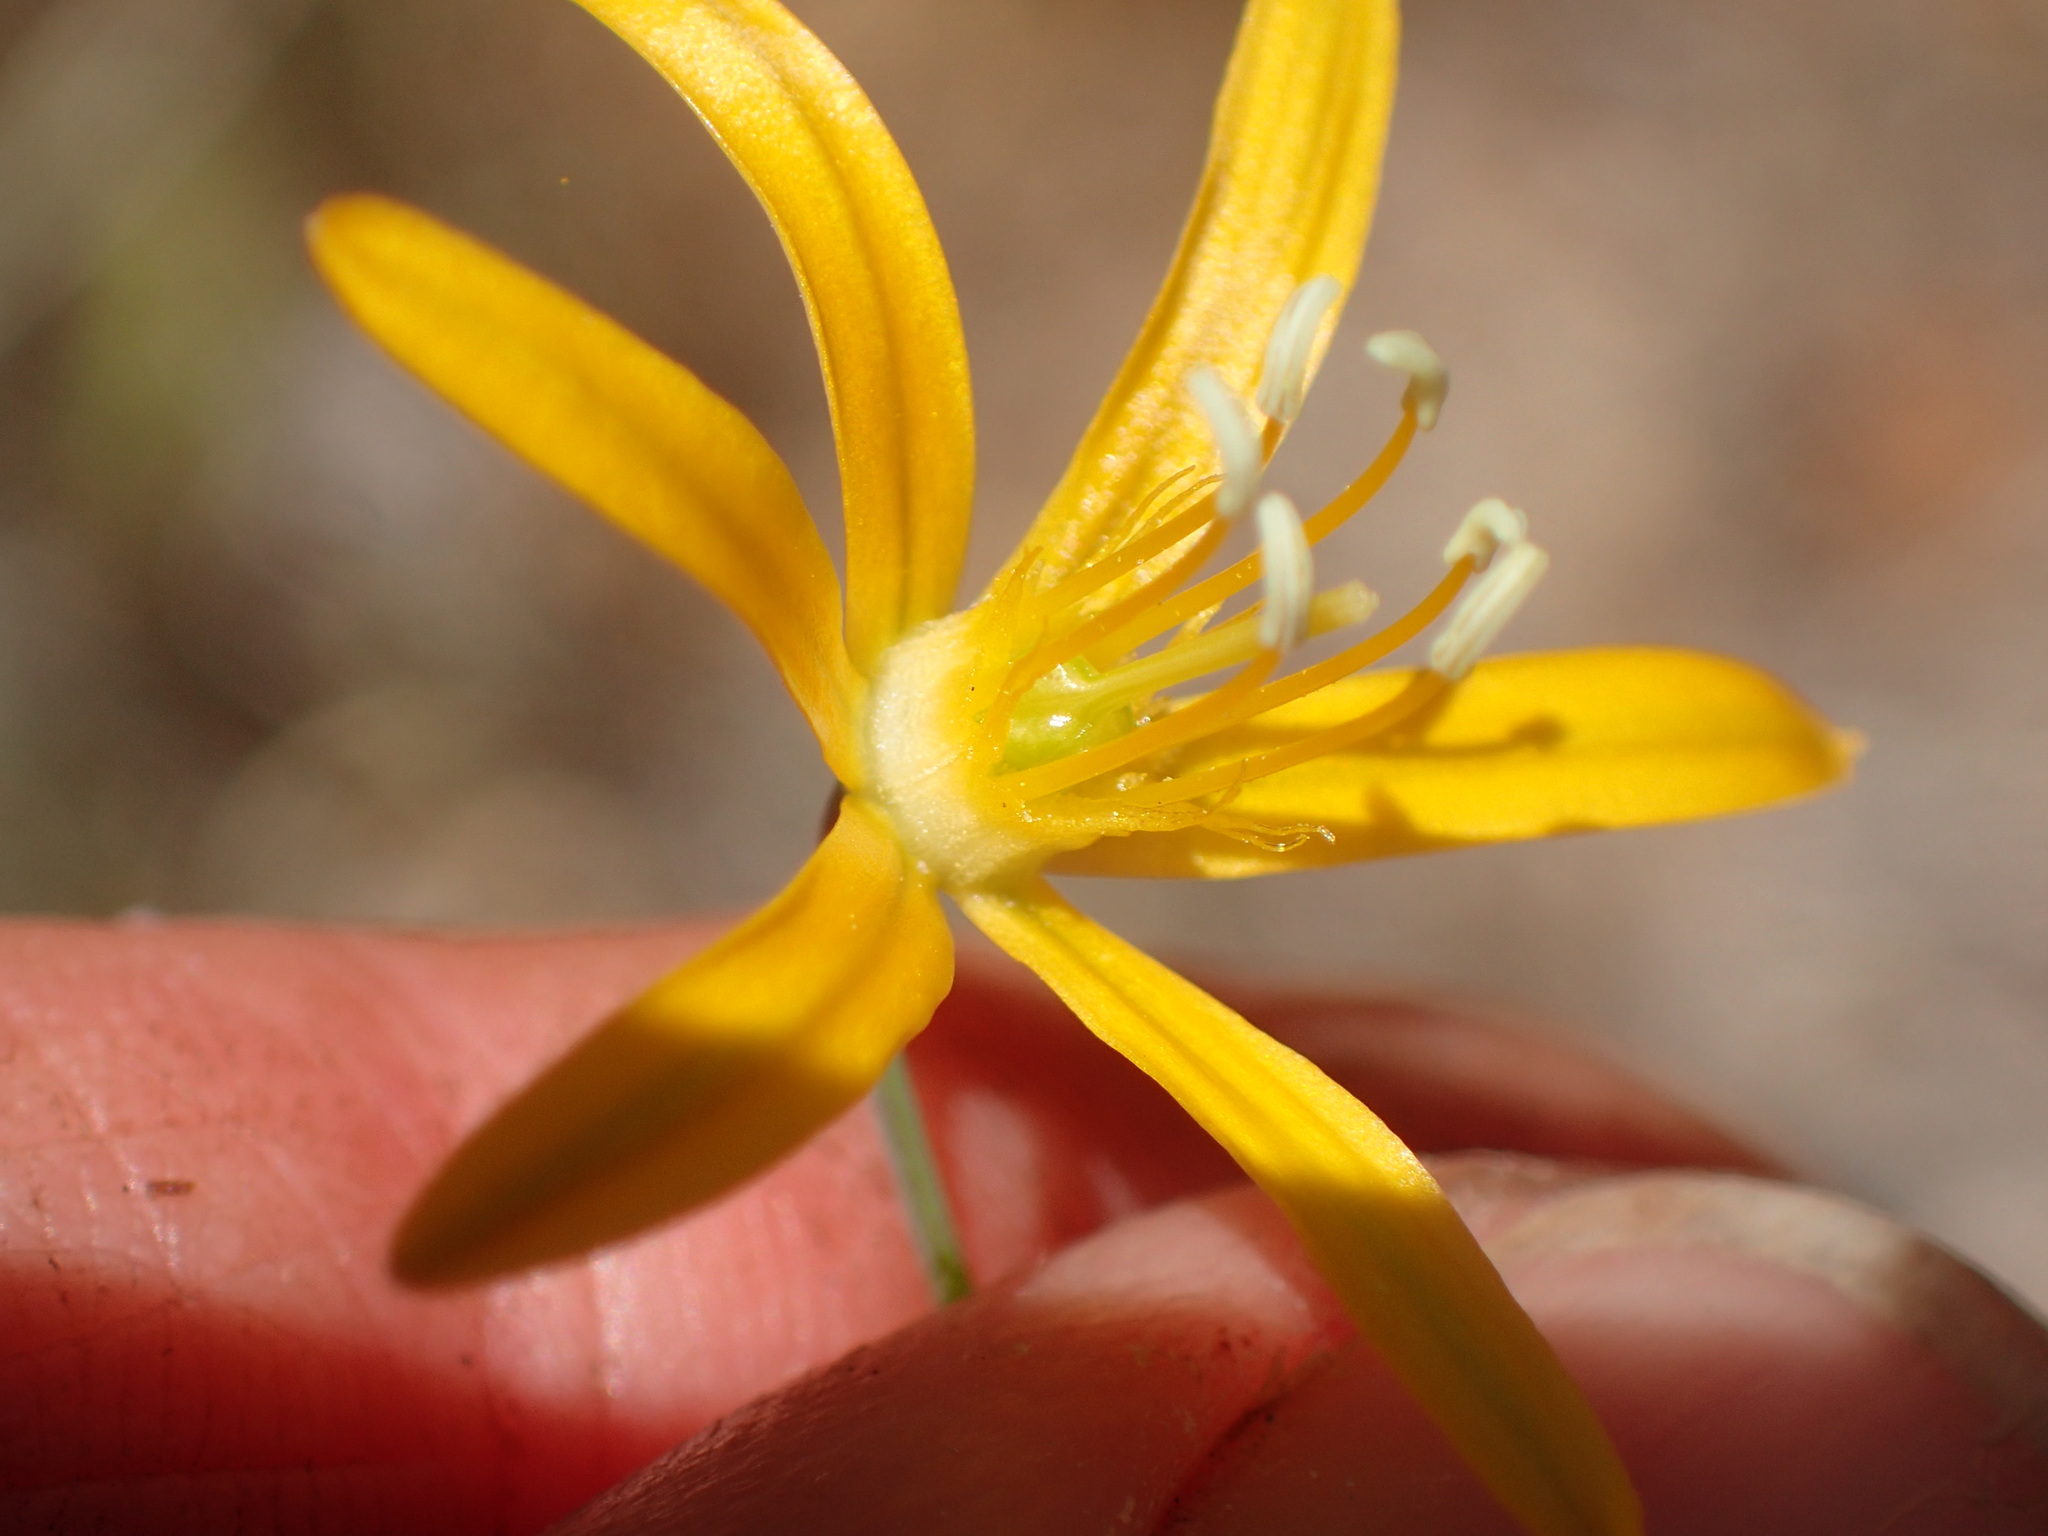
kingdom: Plantae
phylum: Tracheophyta
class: Liliopsida
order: Asparagales
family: Asparagaceae
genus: Bloomeria
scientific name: Bloomeria crocea
